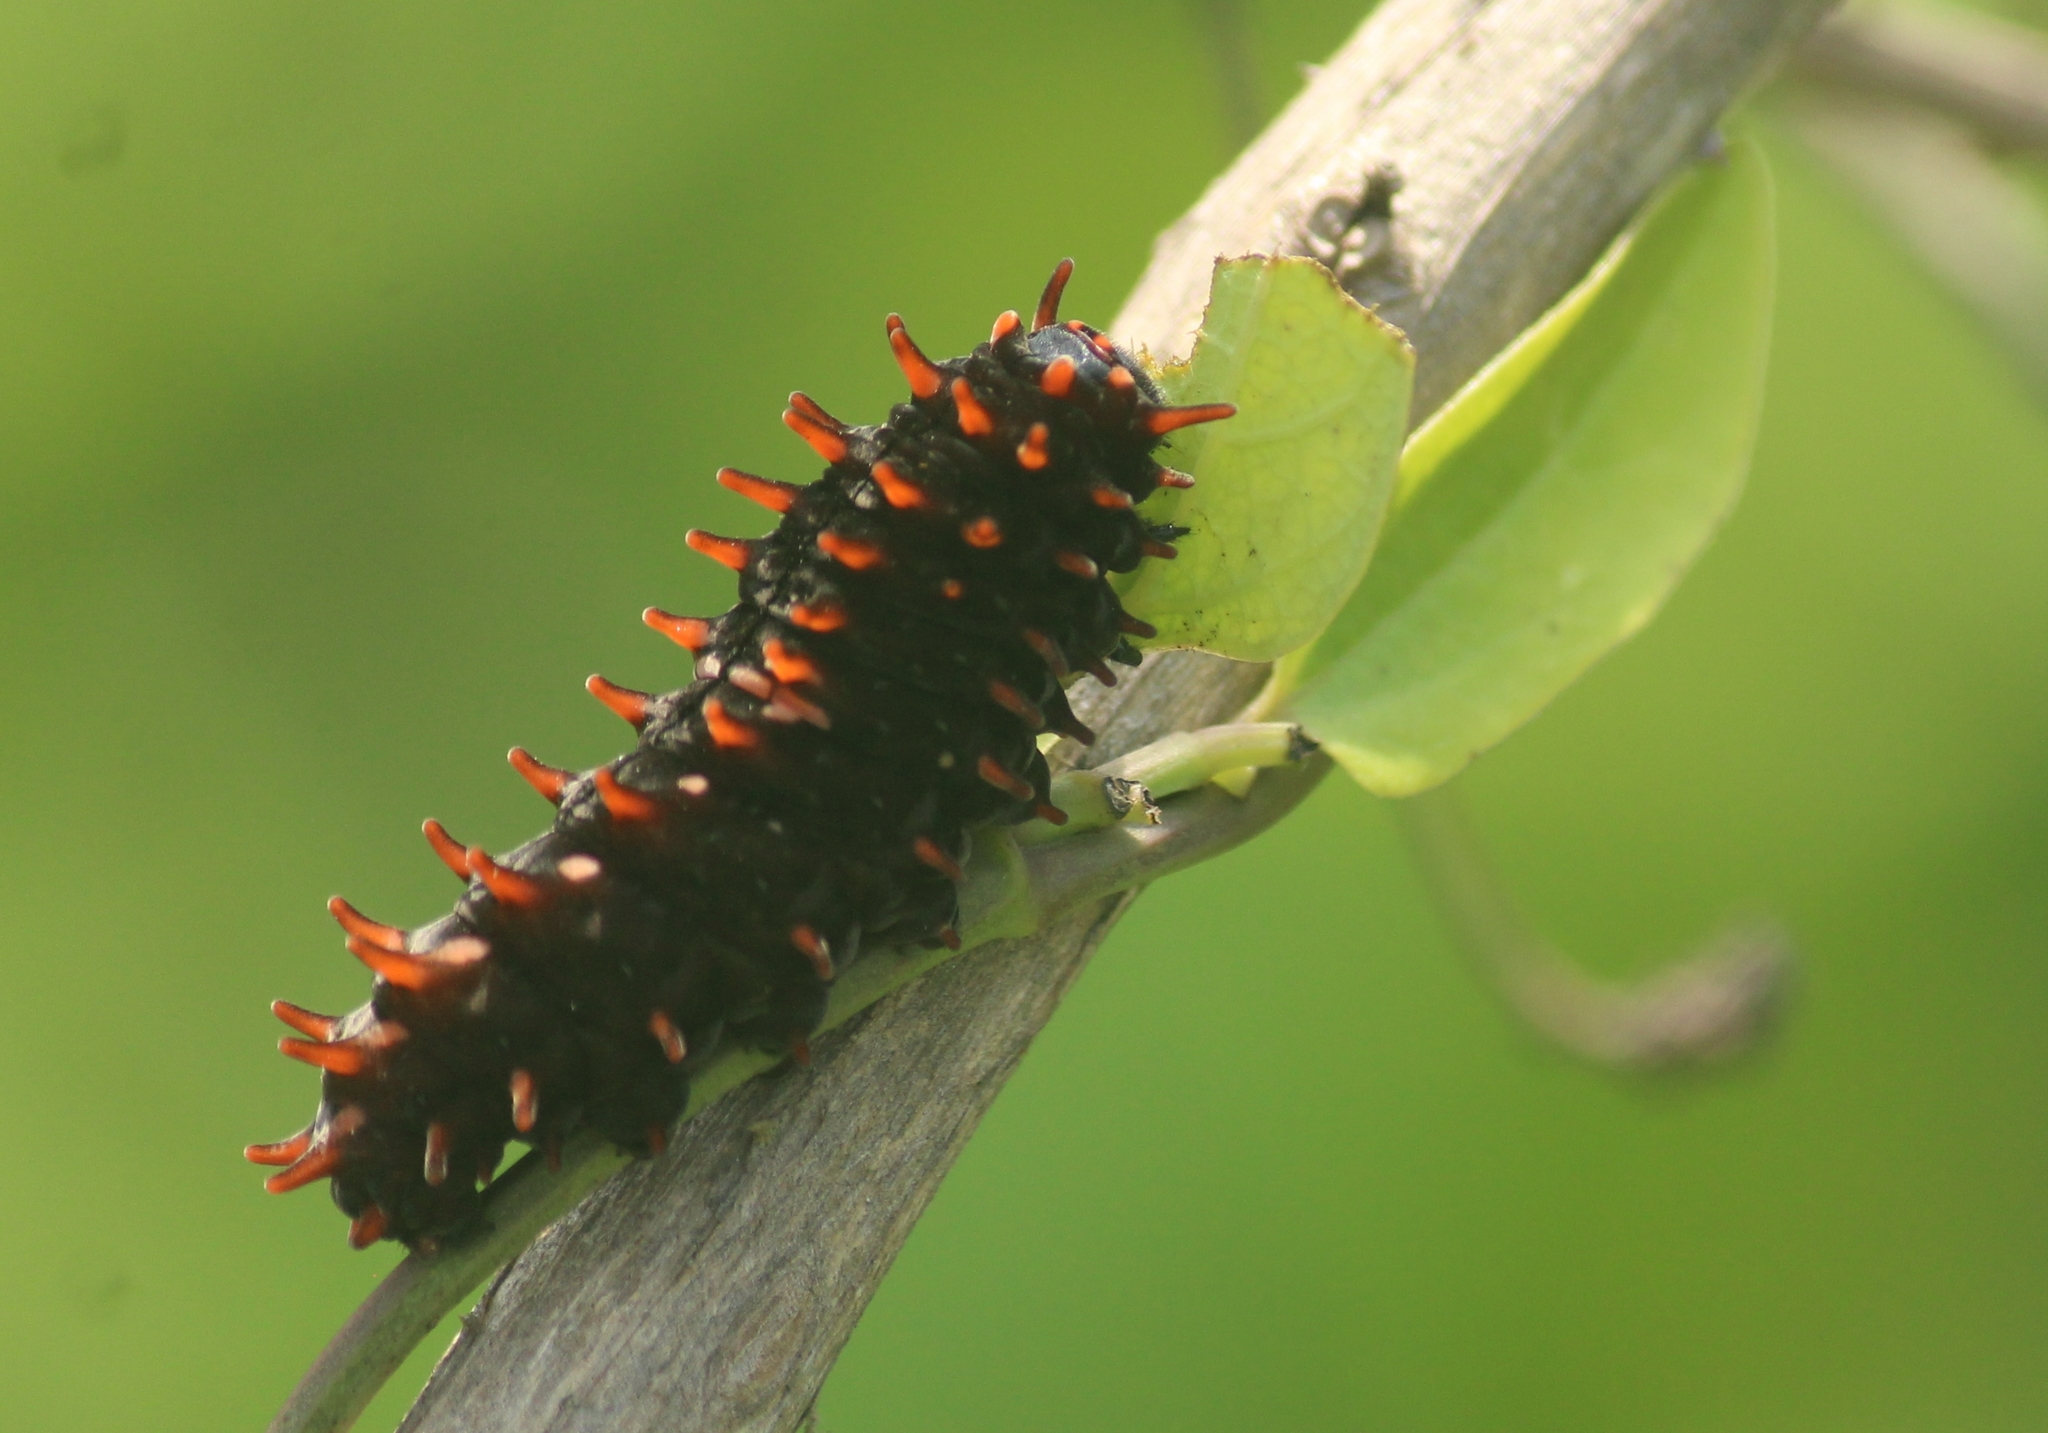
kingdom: Animalia
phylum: Arthropoda
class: Insecta
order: Lepidoptera
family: Papilionidae
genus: Pachliopta
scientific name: Pachliopta hector
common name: Crimson rose
